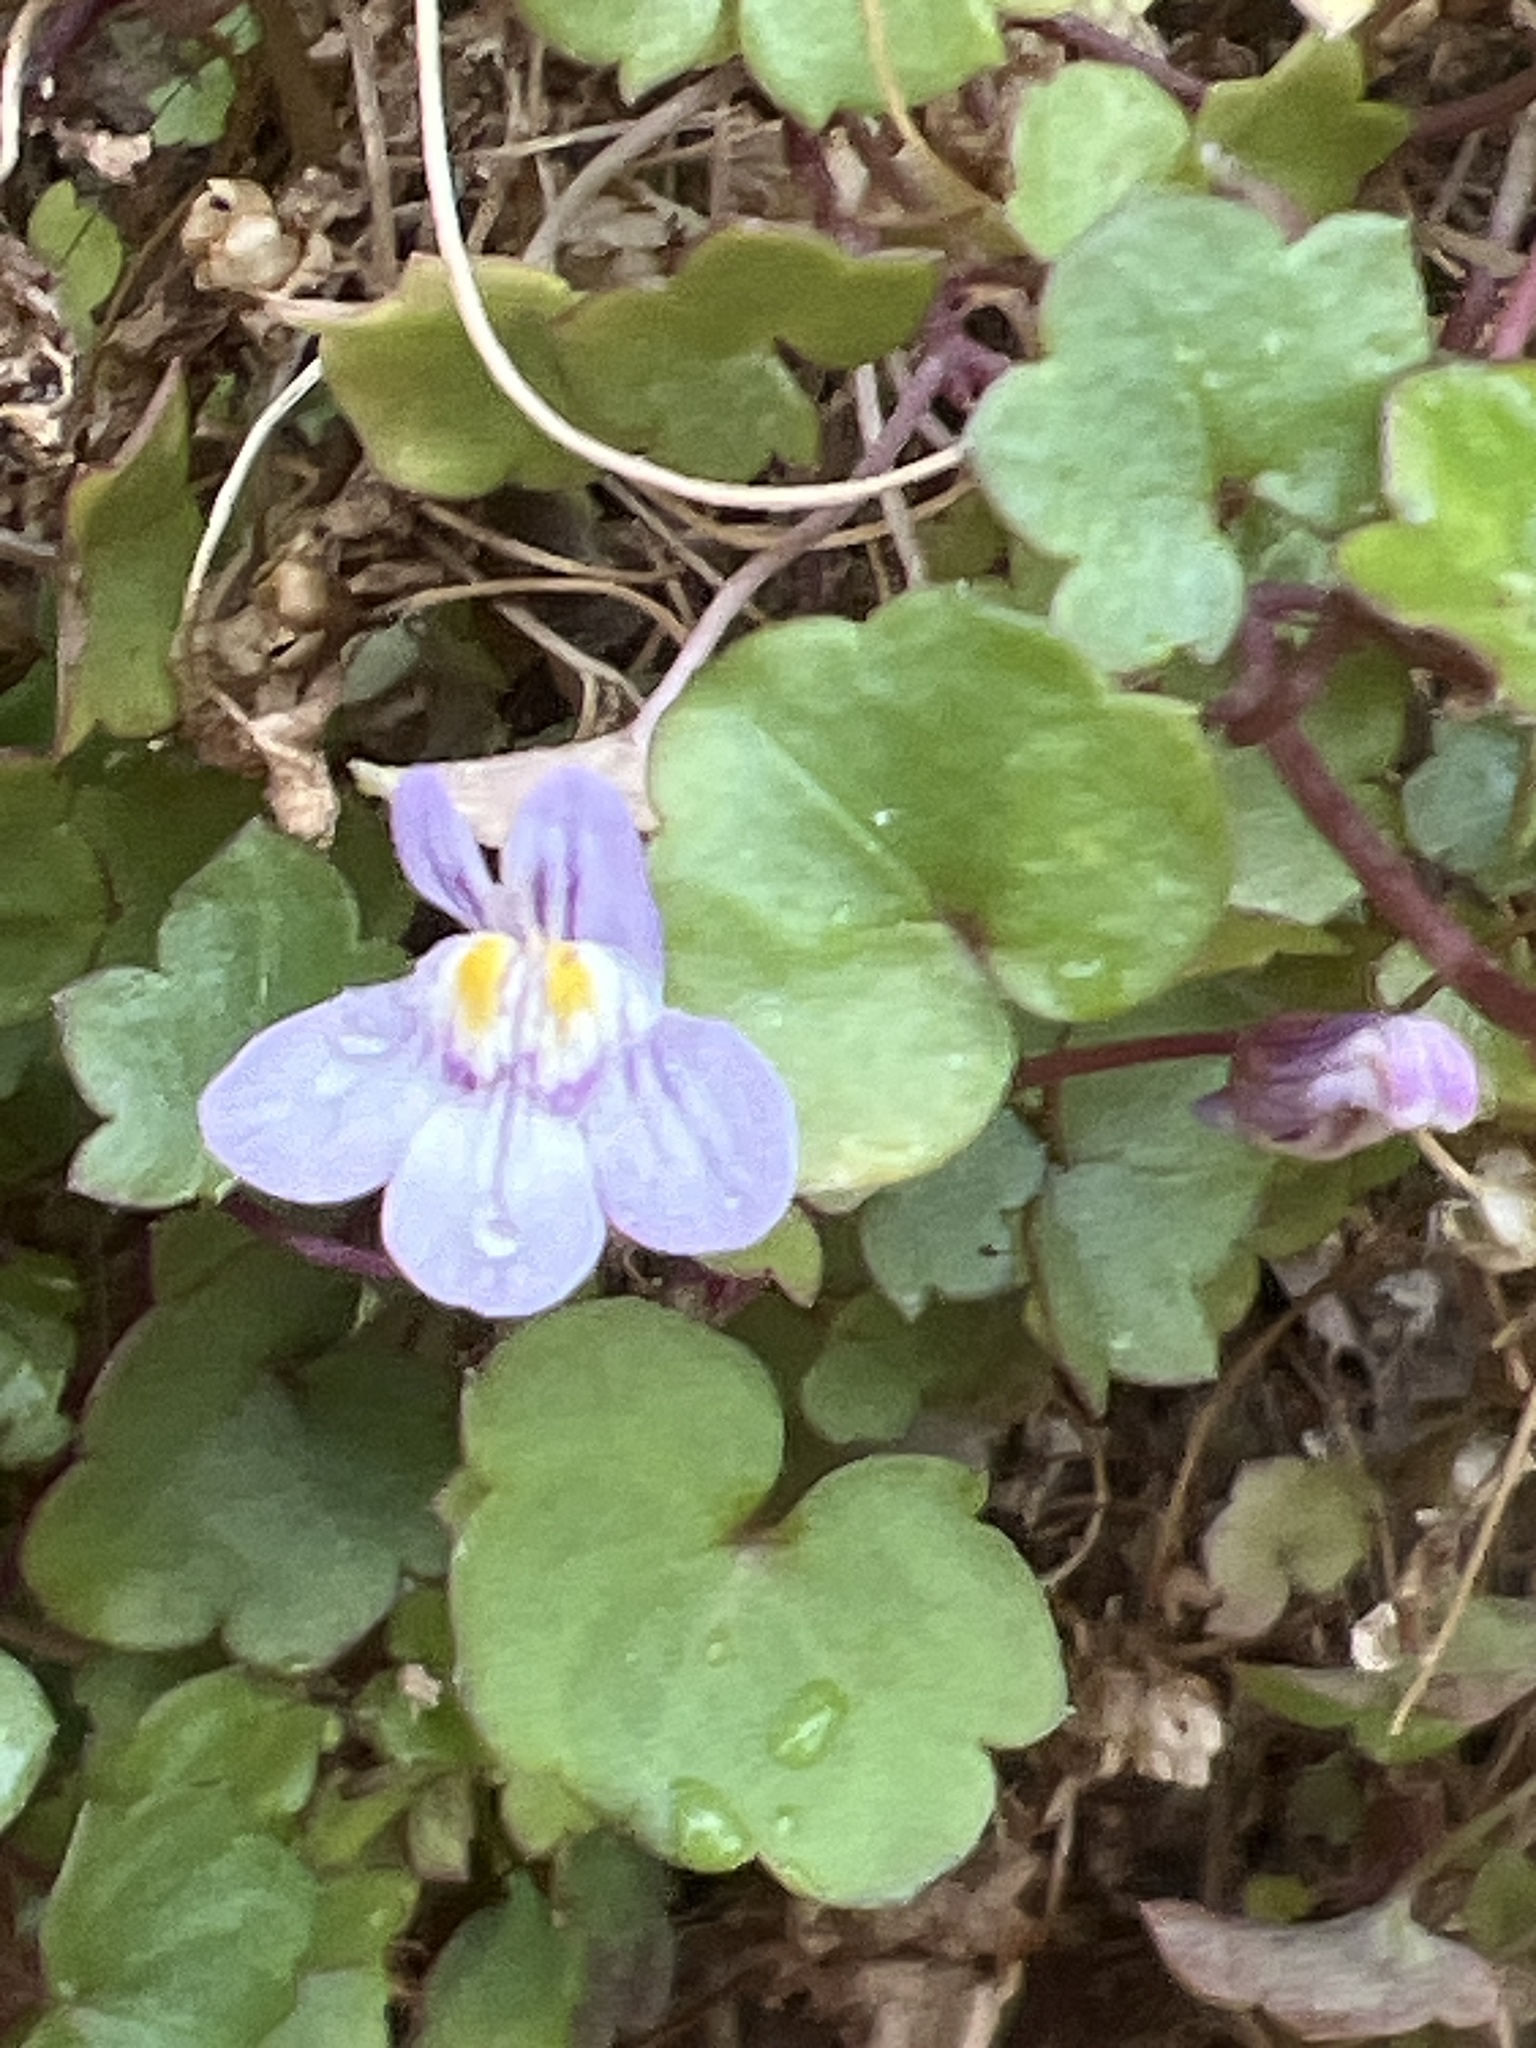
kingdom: Plantae
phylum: Tracheophyta
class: Magnoliopsida
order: Lamiales
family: Plantaginaceae
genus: Cymbalaria
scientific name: Cymbalaria muralis
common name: Ivy-leaved toadflax
